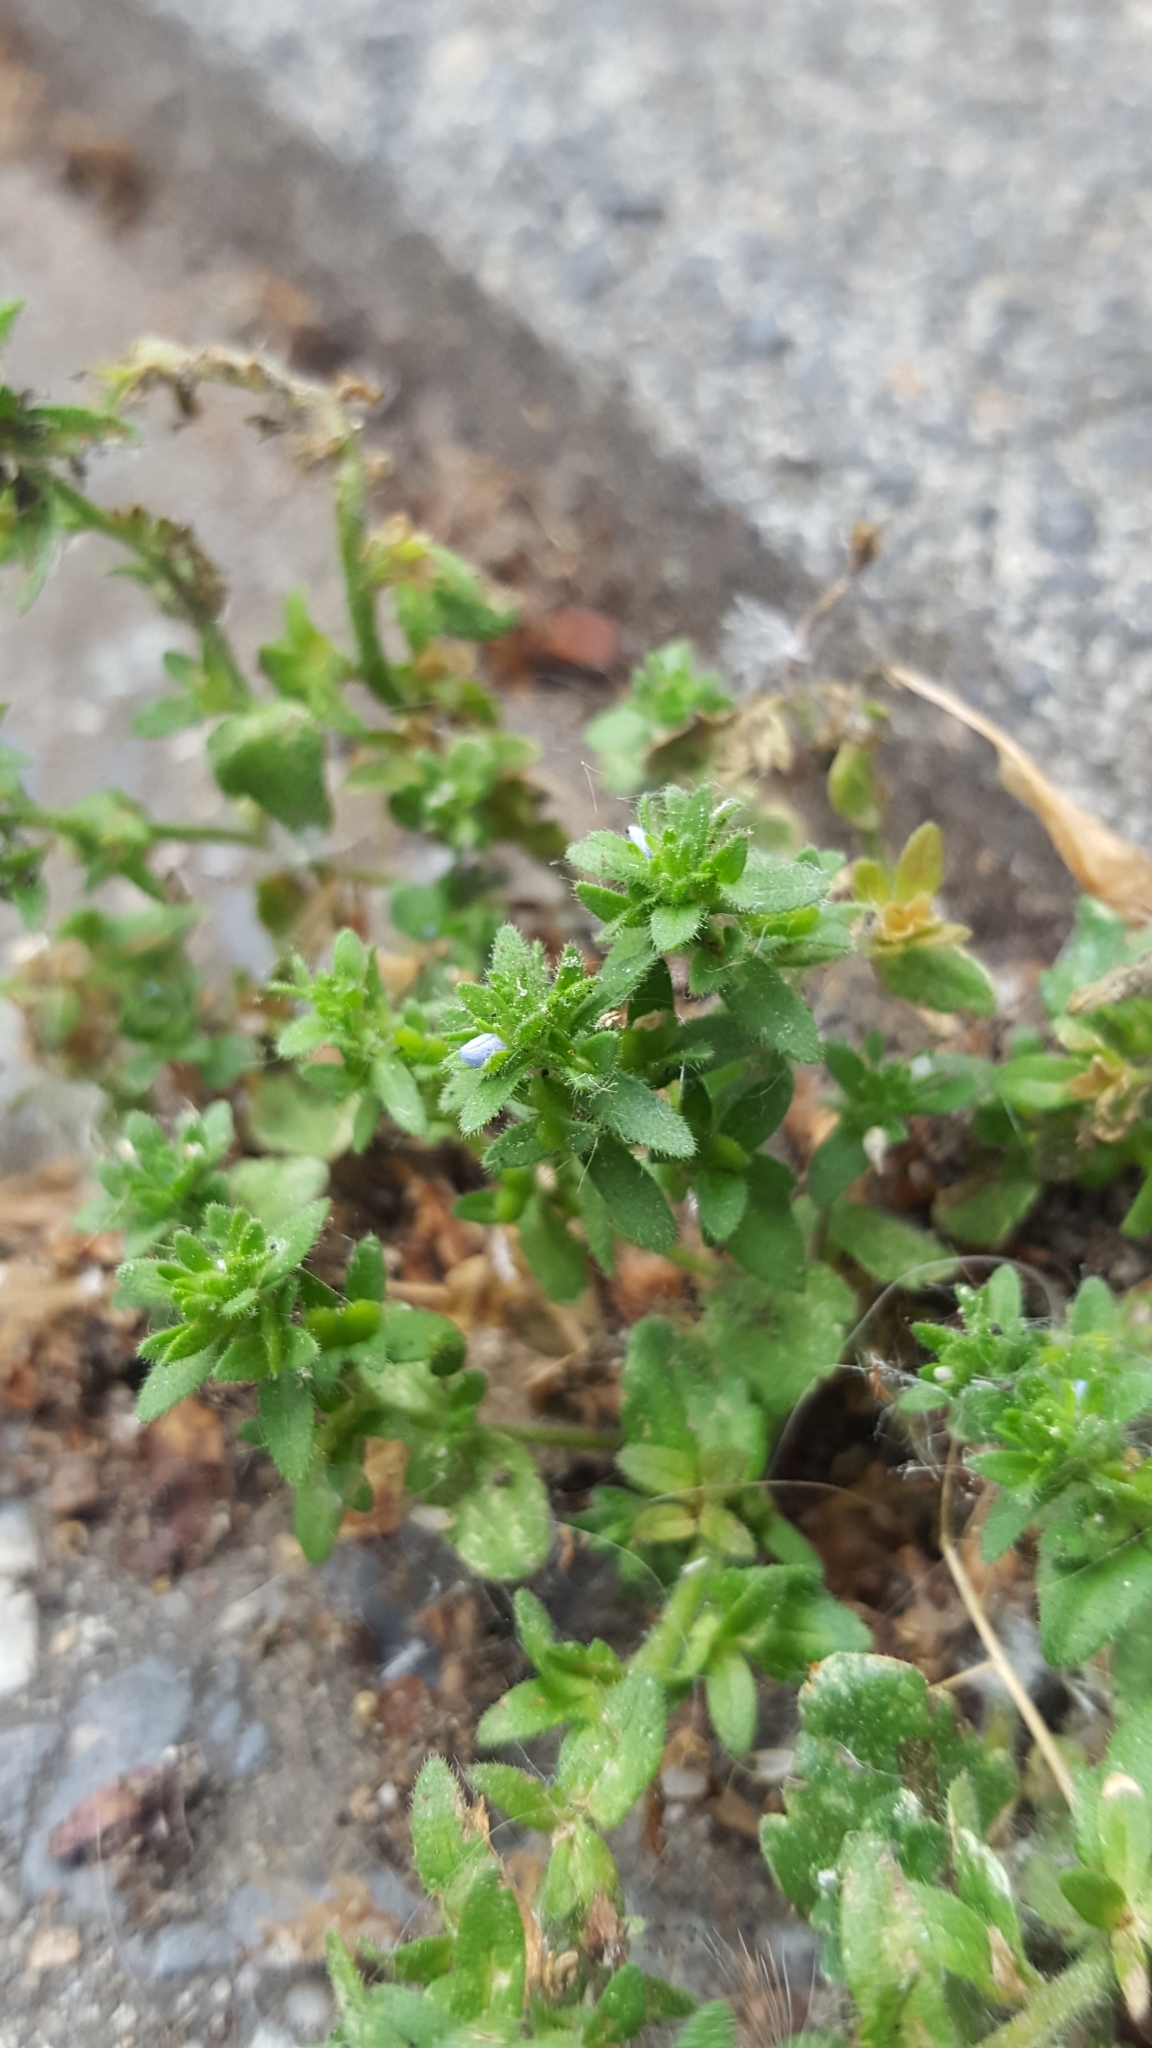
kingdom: Plantae
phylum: Tracheophyta
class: Magnoliopsida
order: Lamiales
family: Plantaginaceae
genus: Veronica
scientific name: Veronica arvensis
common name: Corn speedwell
